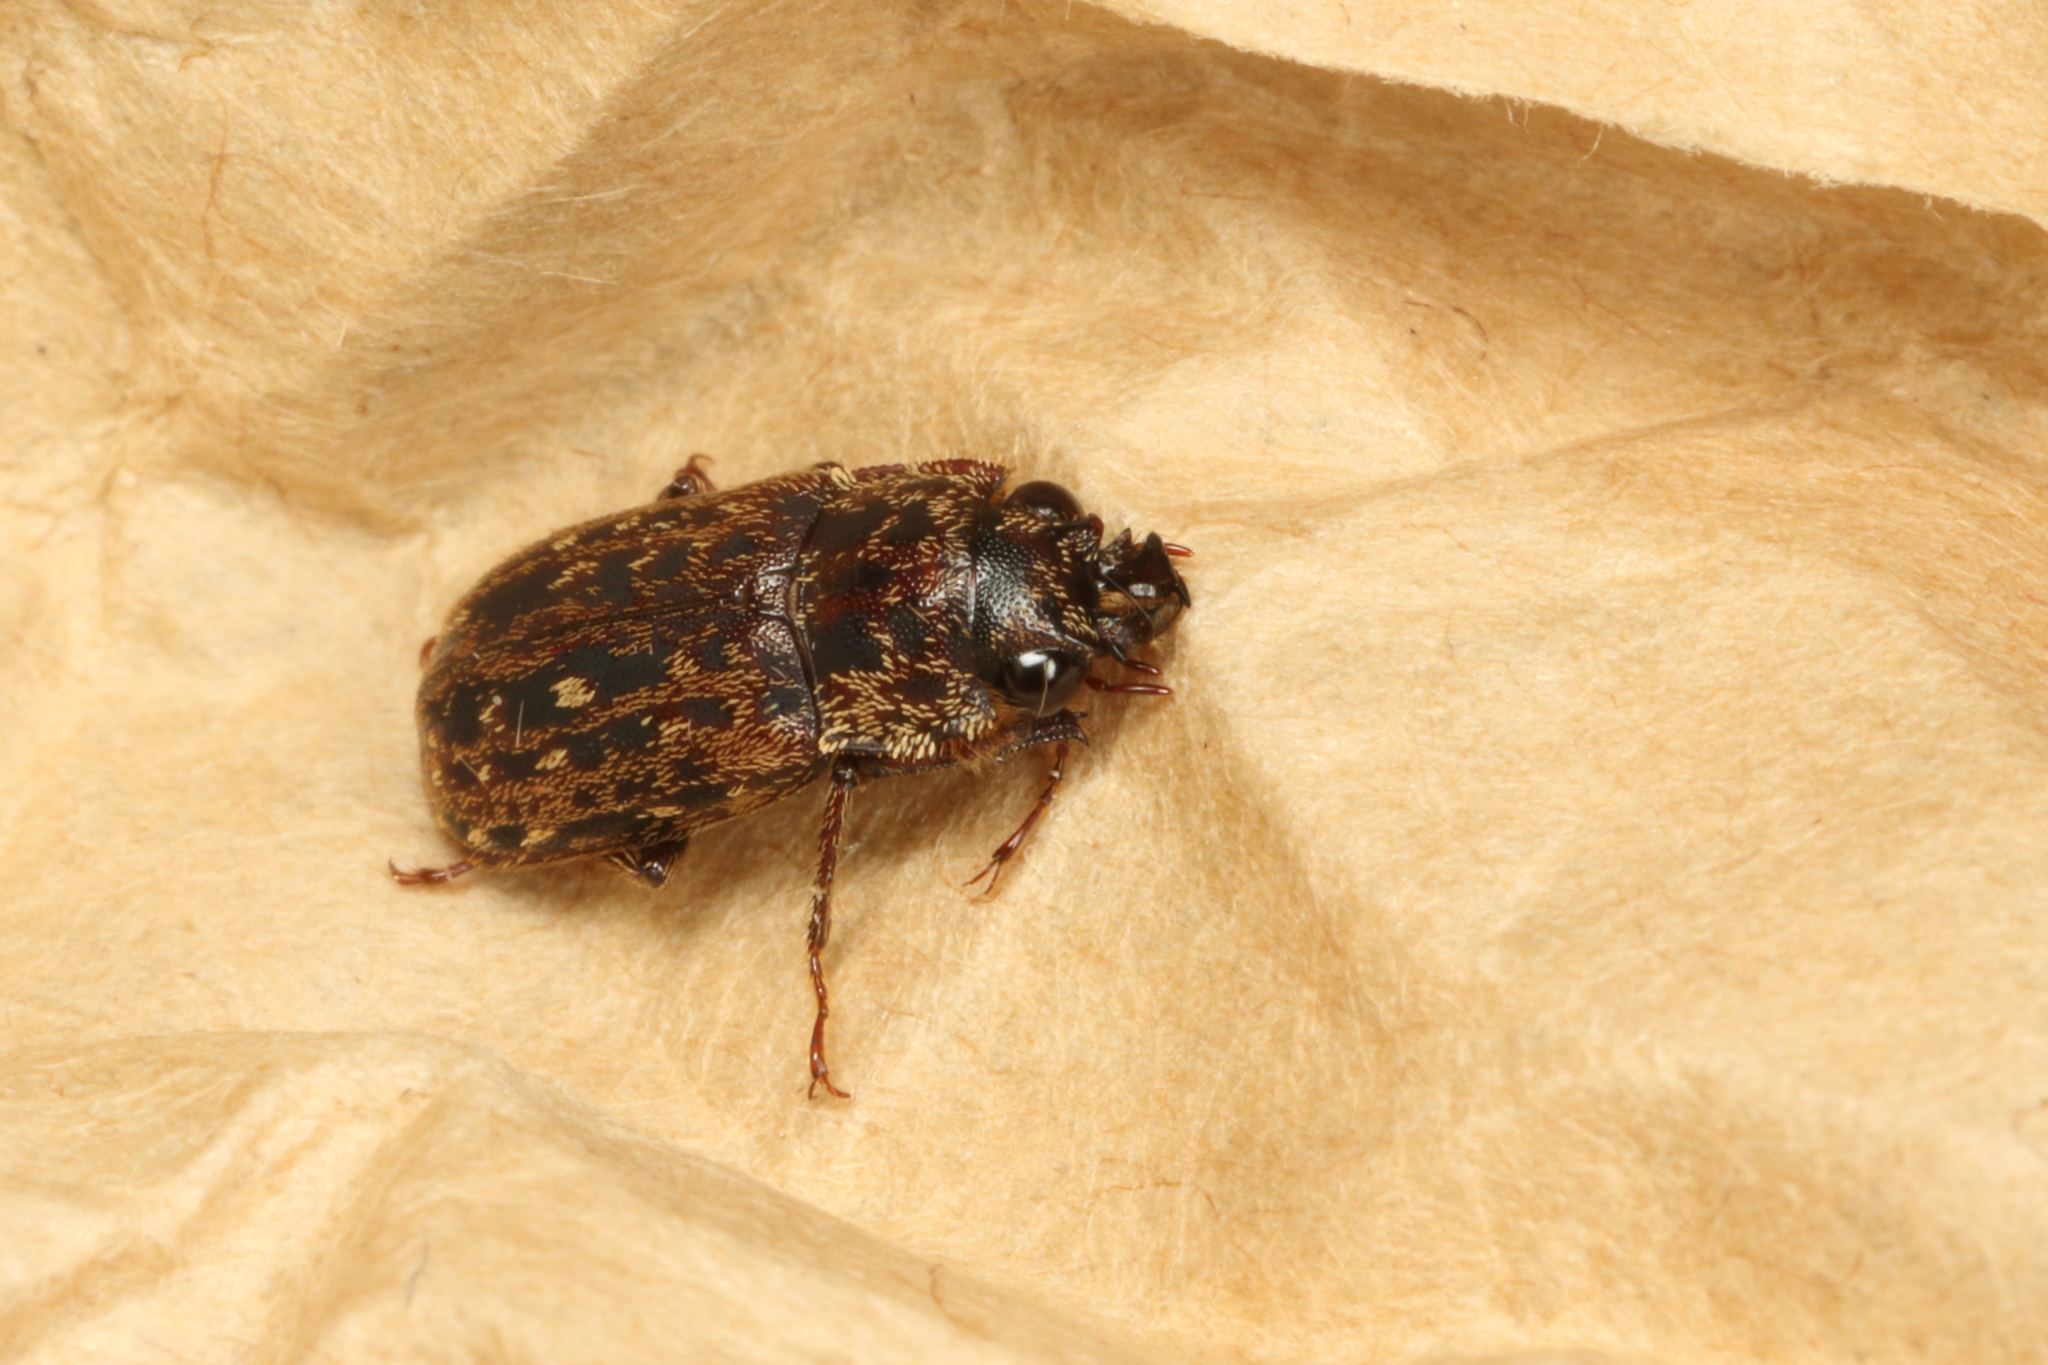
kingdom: Animalia
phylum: Arthropoda
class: Insecta
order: Coleoptera
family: Lucanidae
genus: Mitophyllus
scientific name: Mitophyllus irroratus
